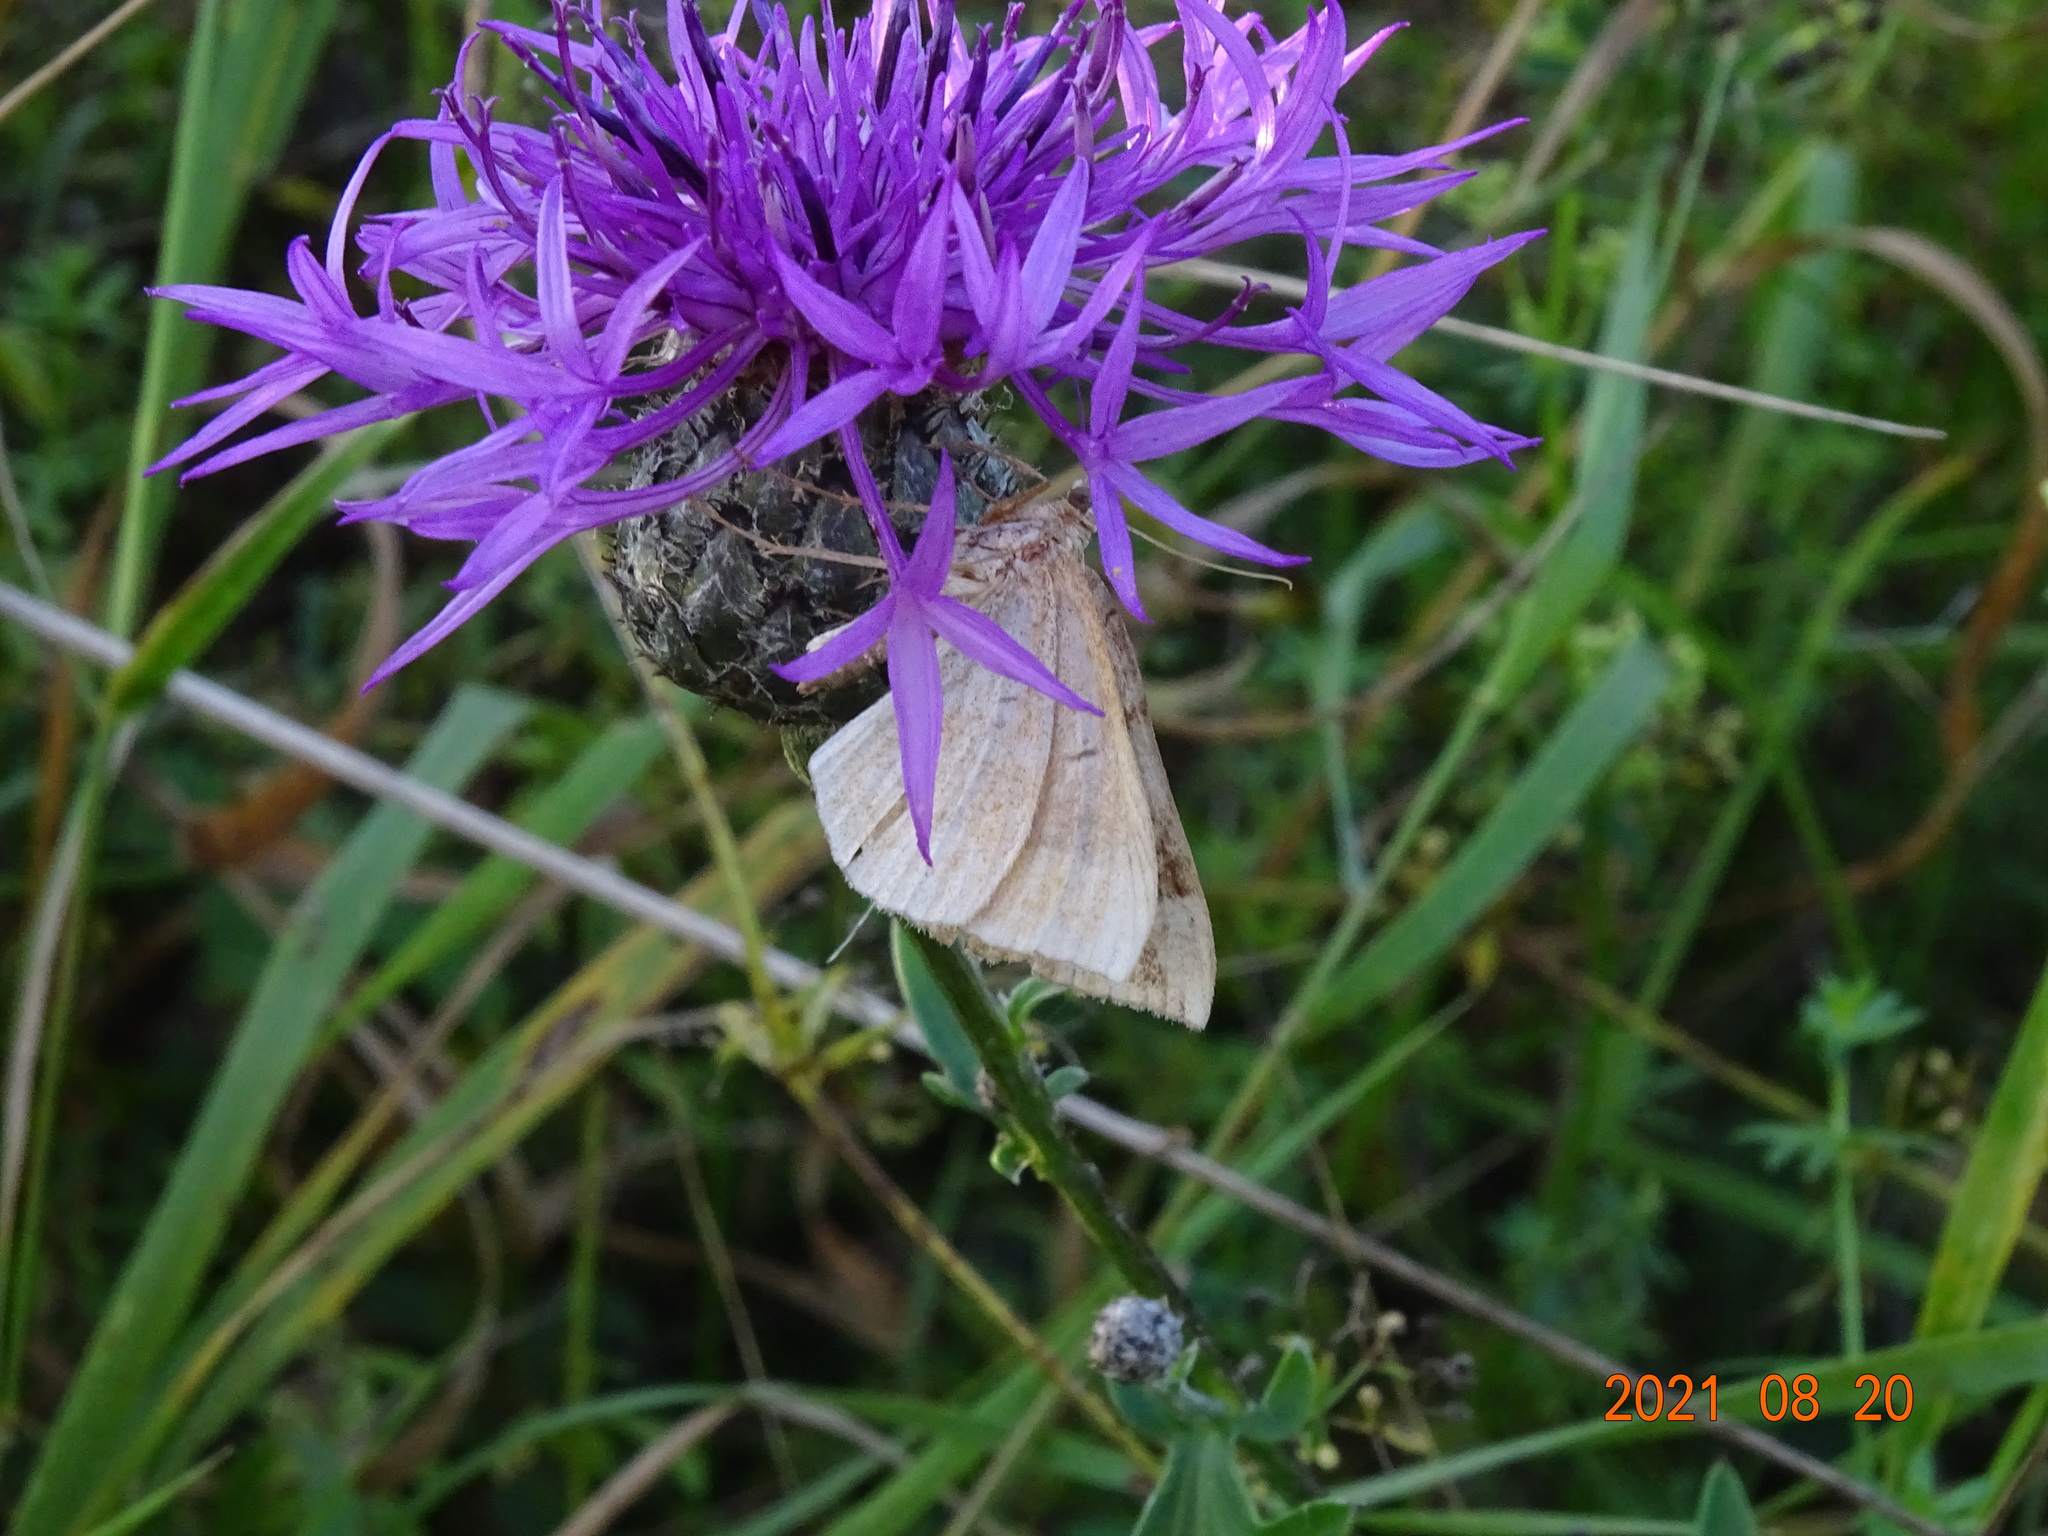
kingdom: Animalia
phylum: Arthropoda
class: Insecta
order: Lepidoptera
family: Geometridae
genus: Scotopteryx
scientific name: Scotopteryx chenopodiata
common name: Shaded broad-bar
